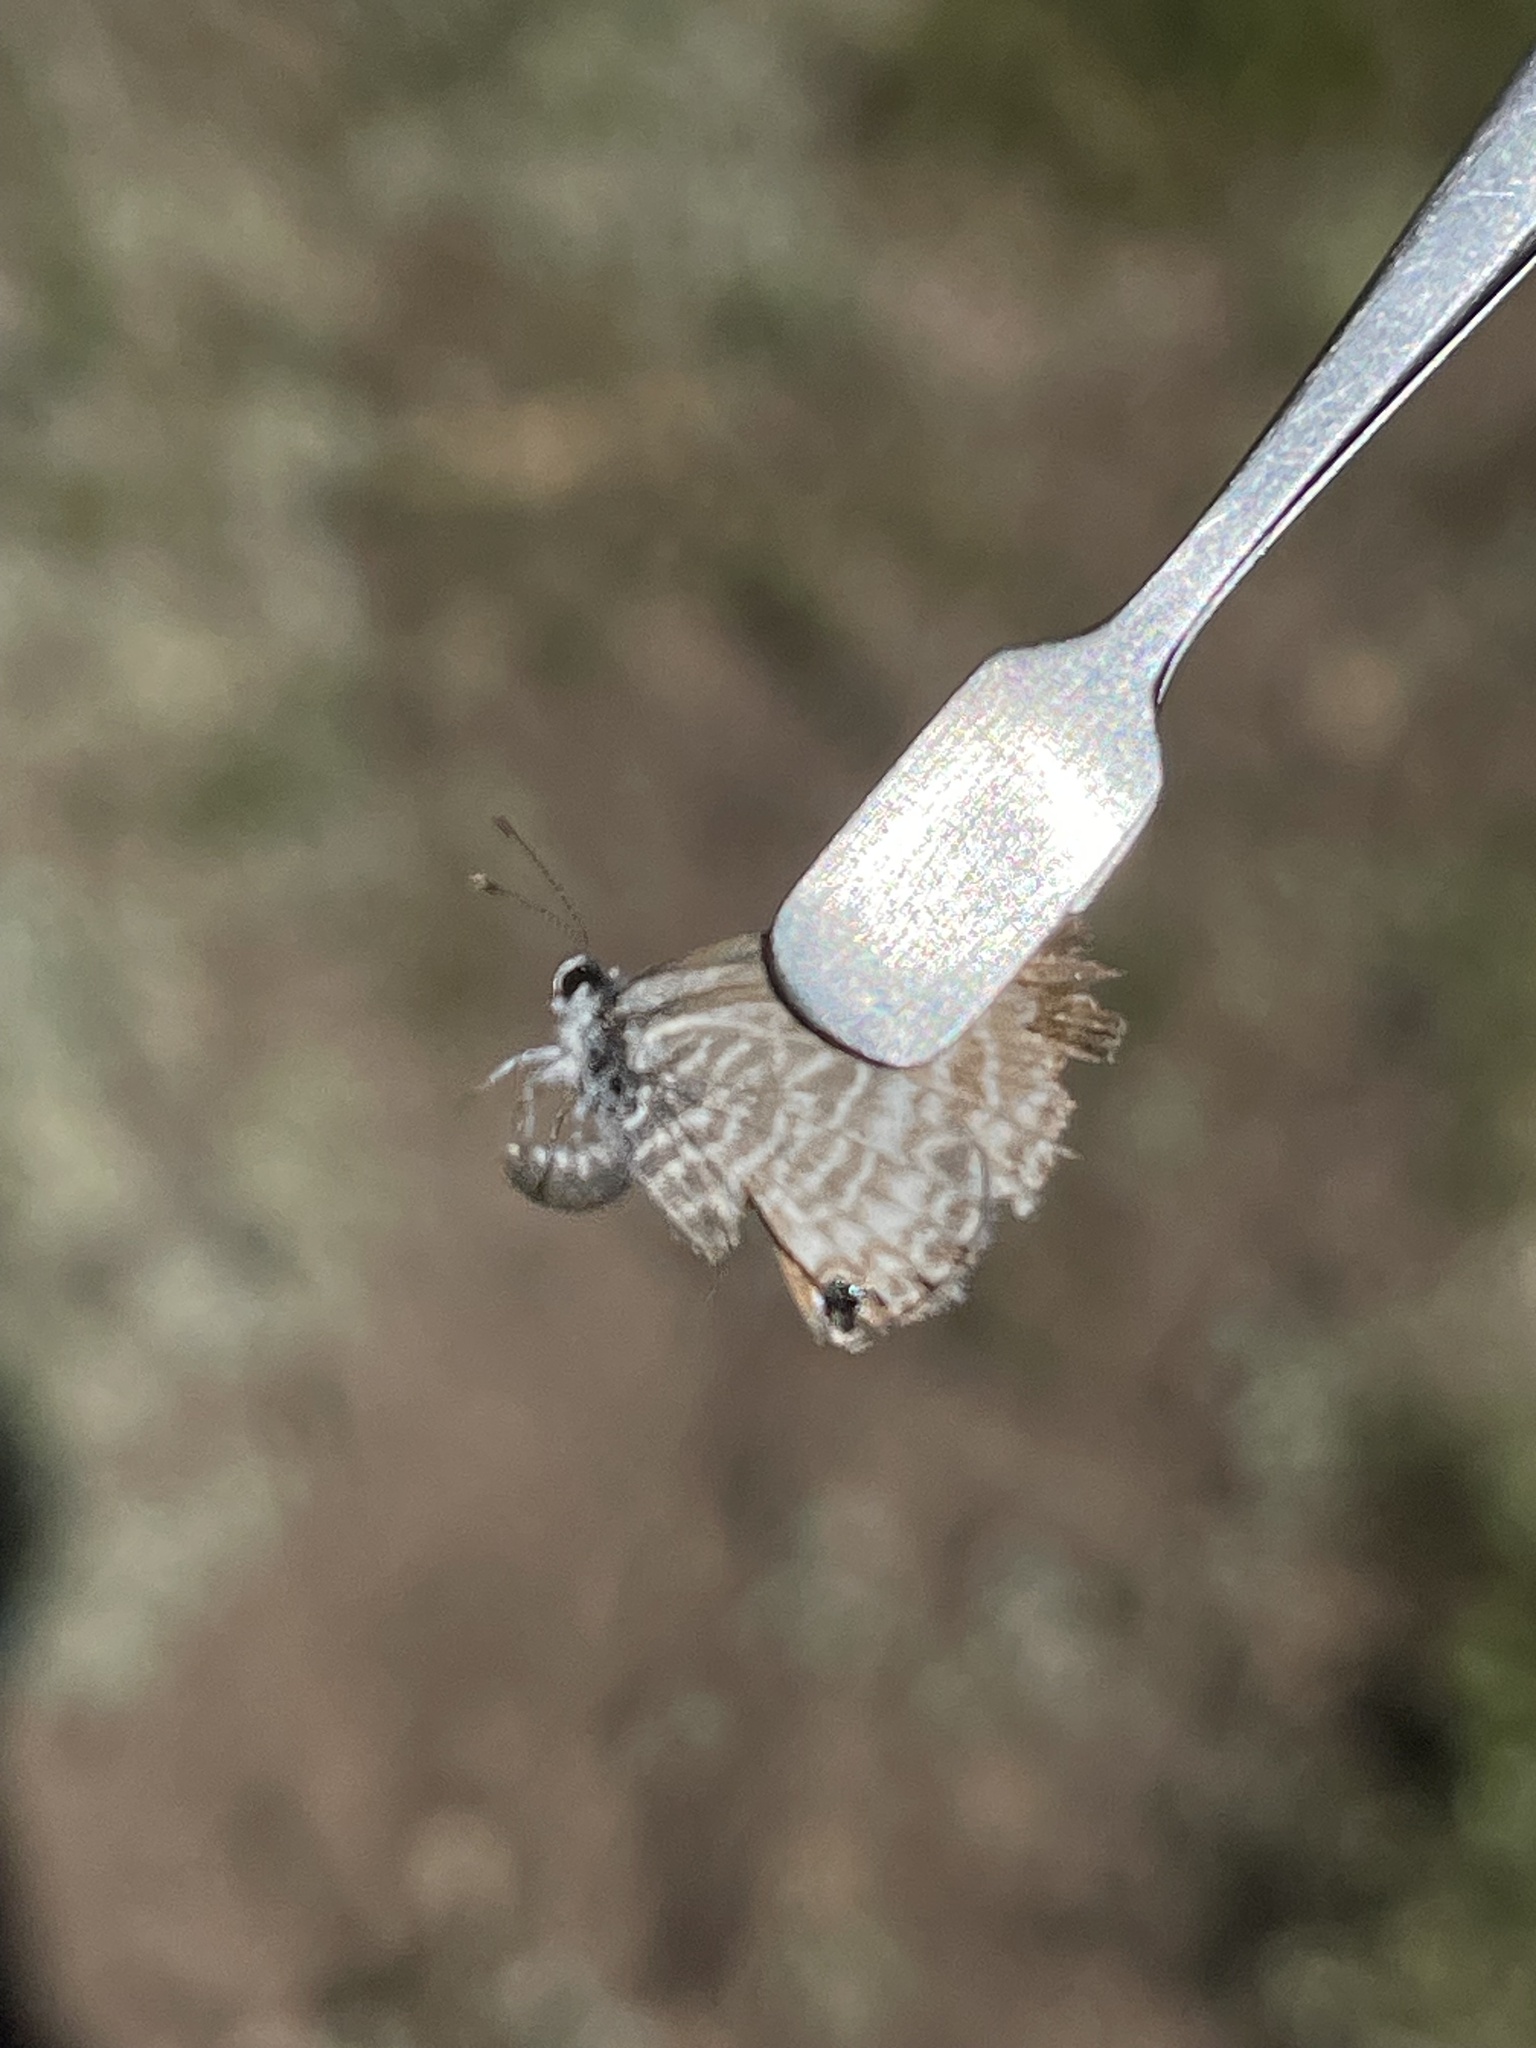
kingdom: Animalia
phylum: Arthropoda
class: Insecta
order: Lepidoptera
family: Lycaenidae
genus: Leptotes
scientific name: Leptotes marina
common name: Marine blue
